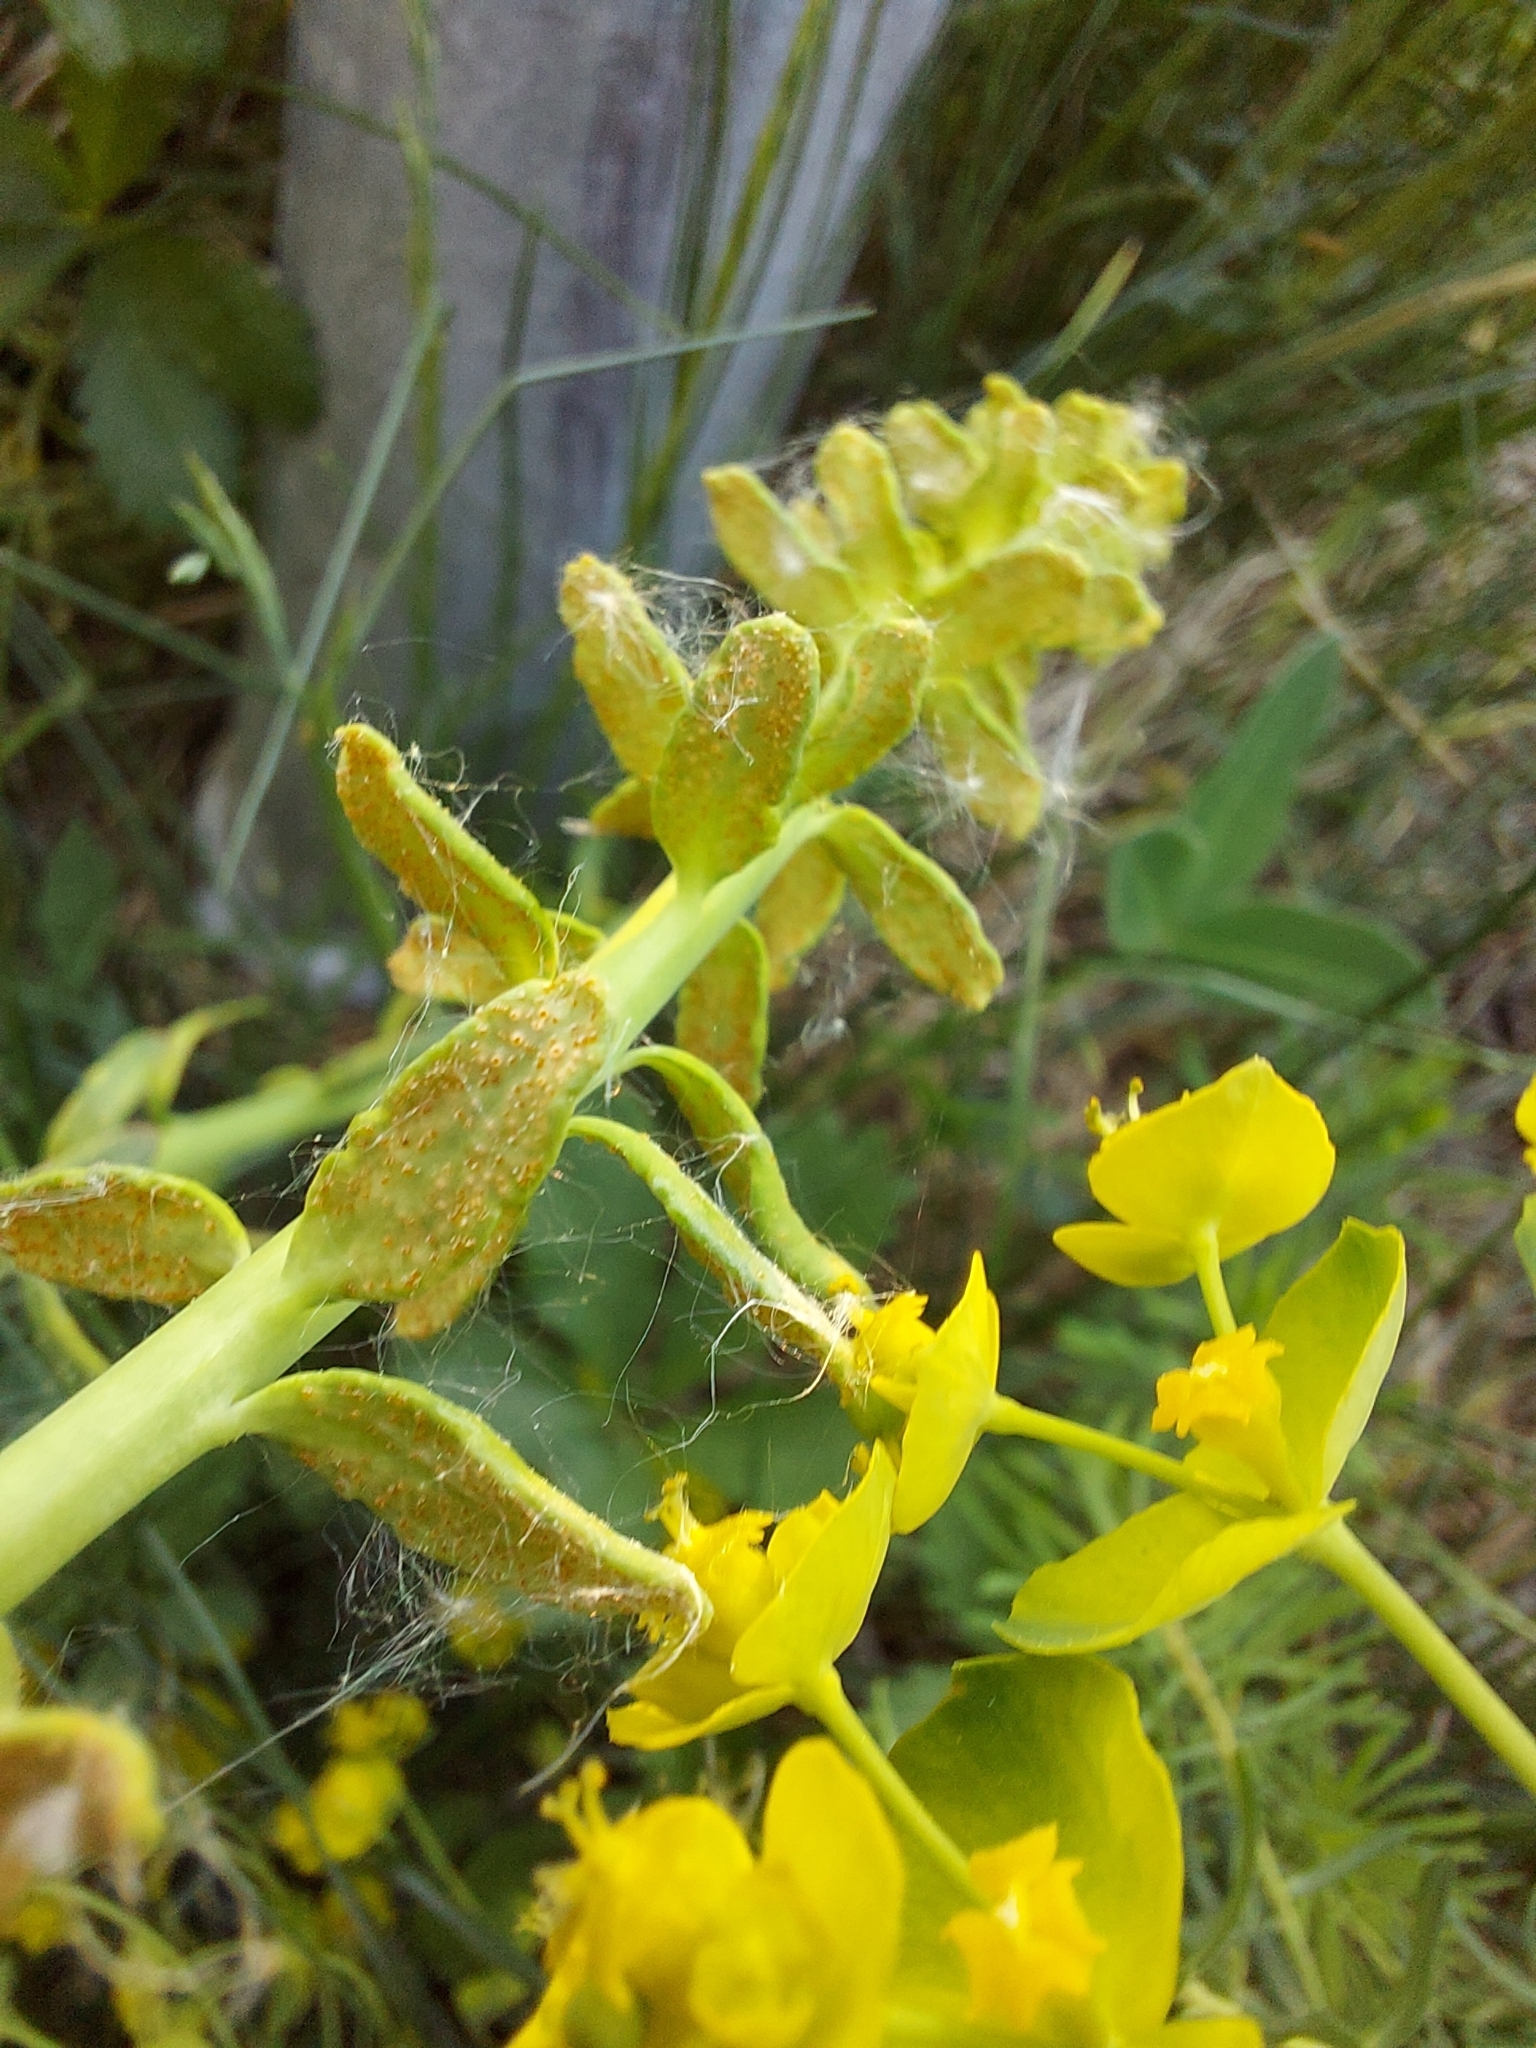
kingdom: Plantae
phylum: Tracheophyta
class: Magnoliopsida
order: Malpighiales
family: Euphorbiaceae
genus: Euphorbia
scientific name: Euphorbia cyparissias
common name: Cypress spurge
